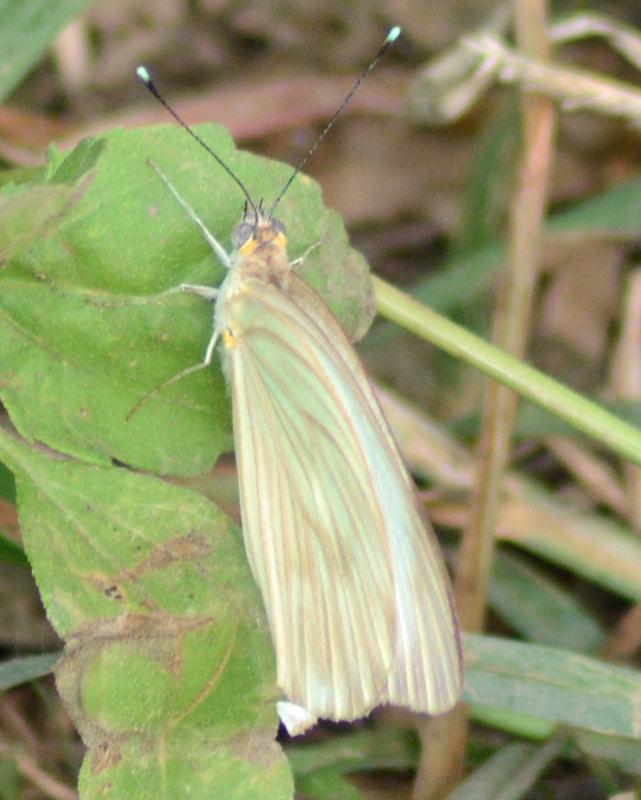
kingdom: Animalia
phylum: Arthropoda
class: Insecta
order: Lepidoptera
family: Pieridae
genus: Ascia
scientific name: Ascia monuste
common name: Great southern white
